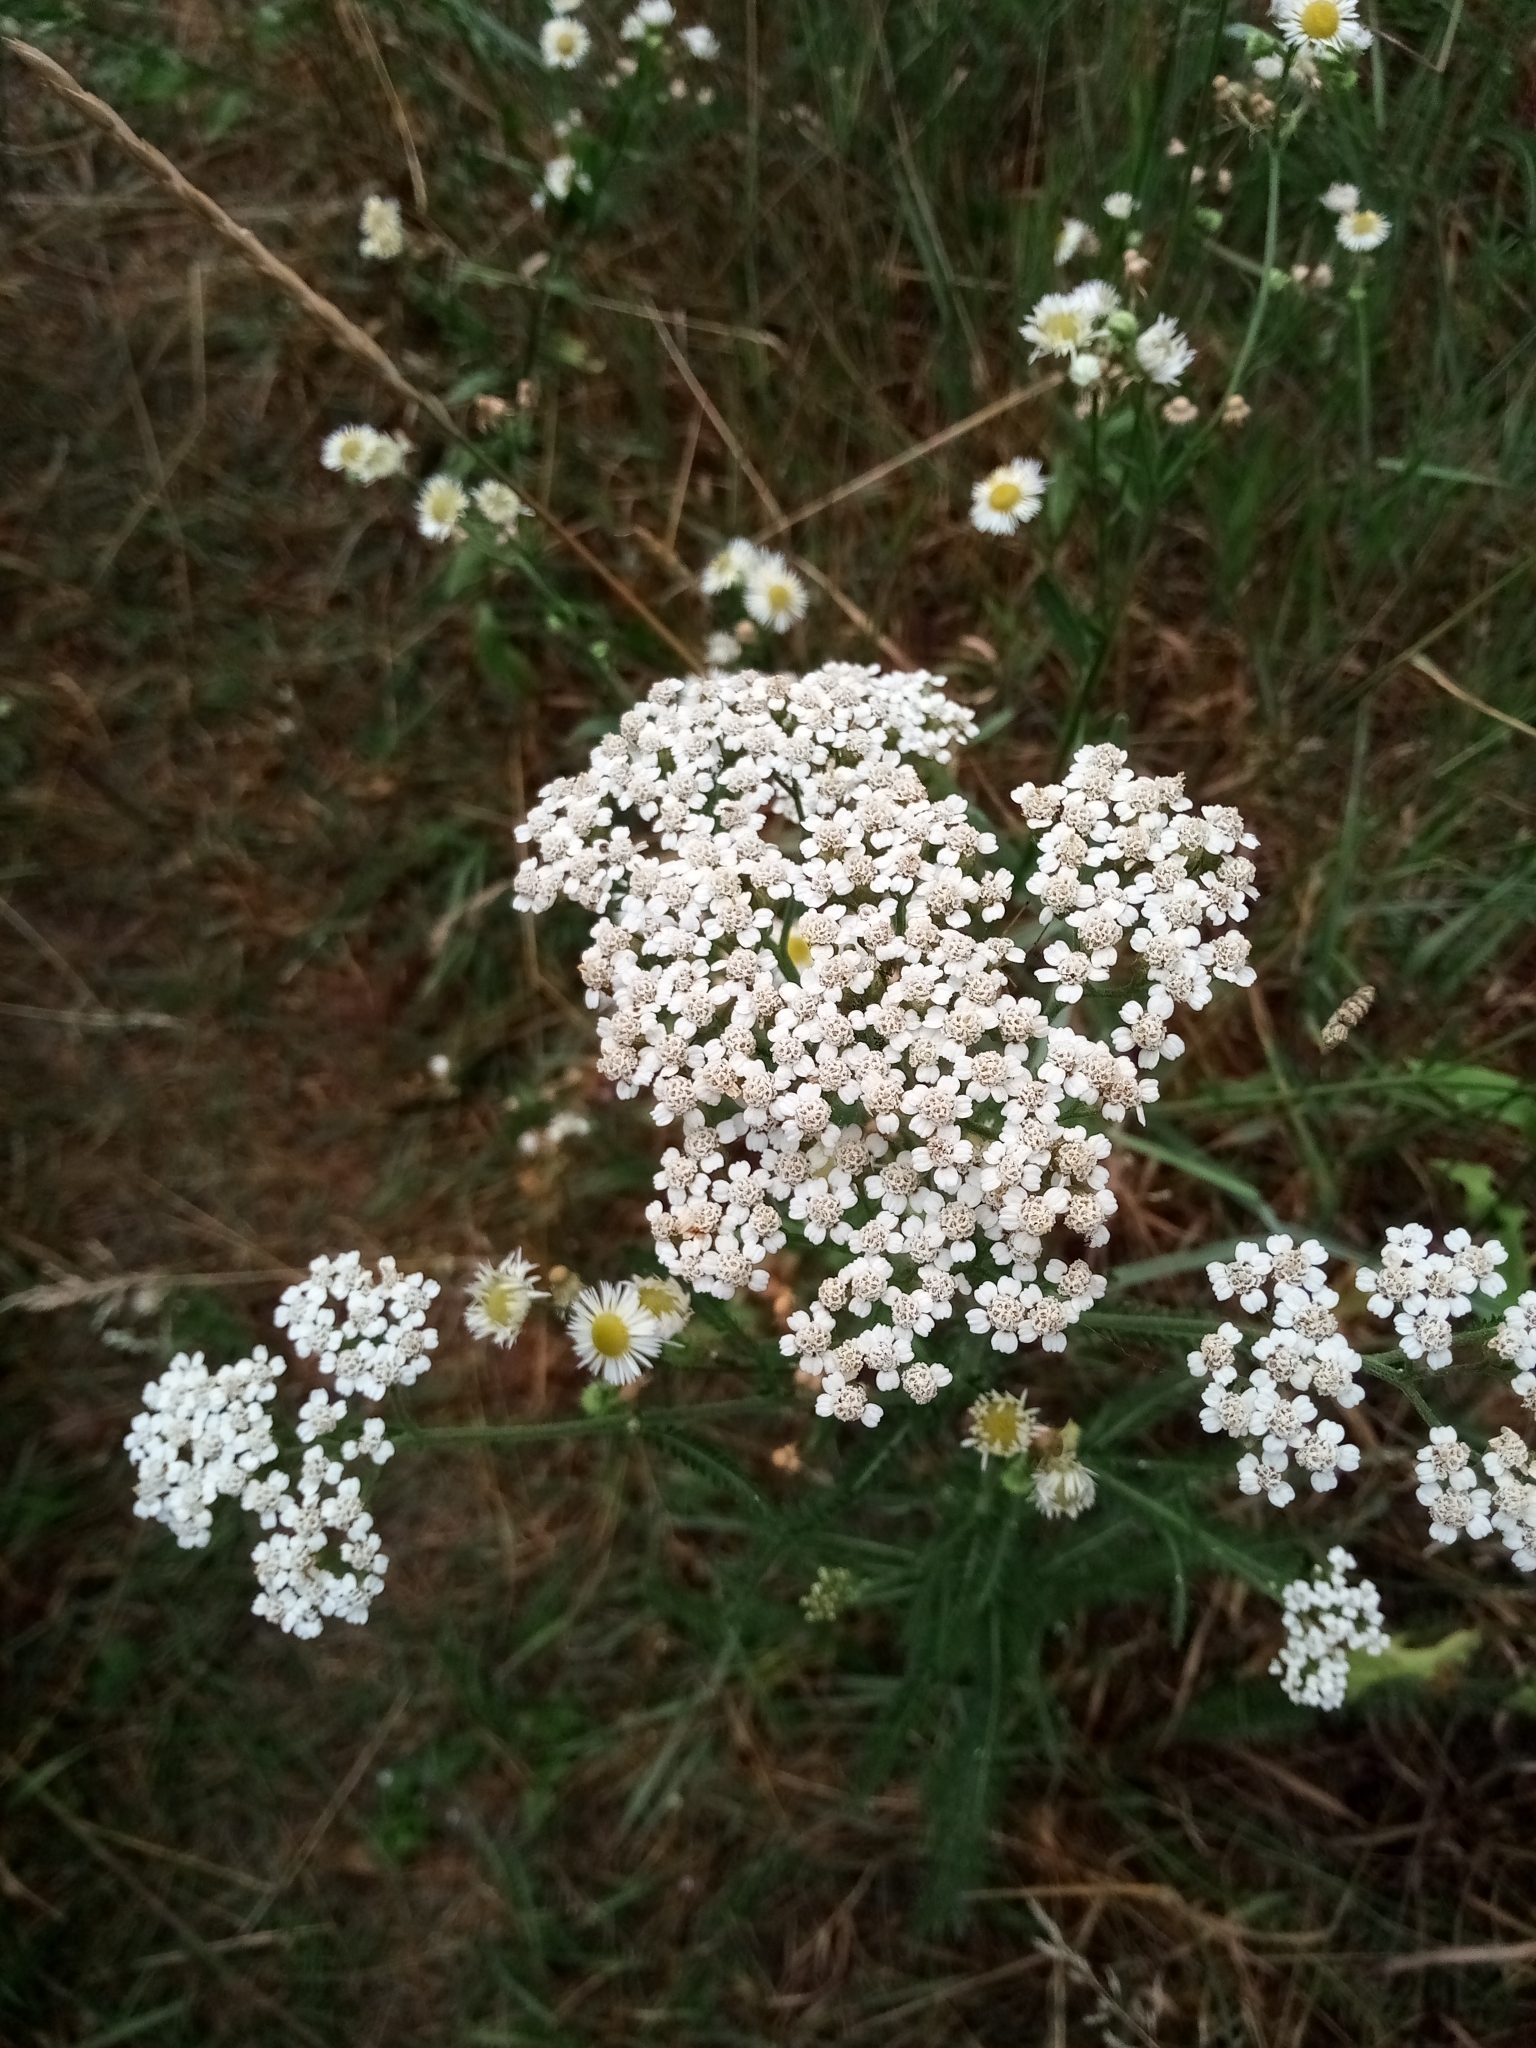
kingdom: Plantae
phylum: Tracheophyta
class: Magnoliopsida
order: Asterales
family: Asteraceae
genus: Achillea
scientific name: Achillea millefolium
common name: Yarrow
